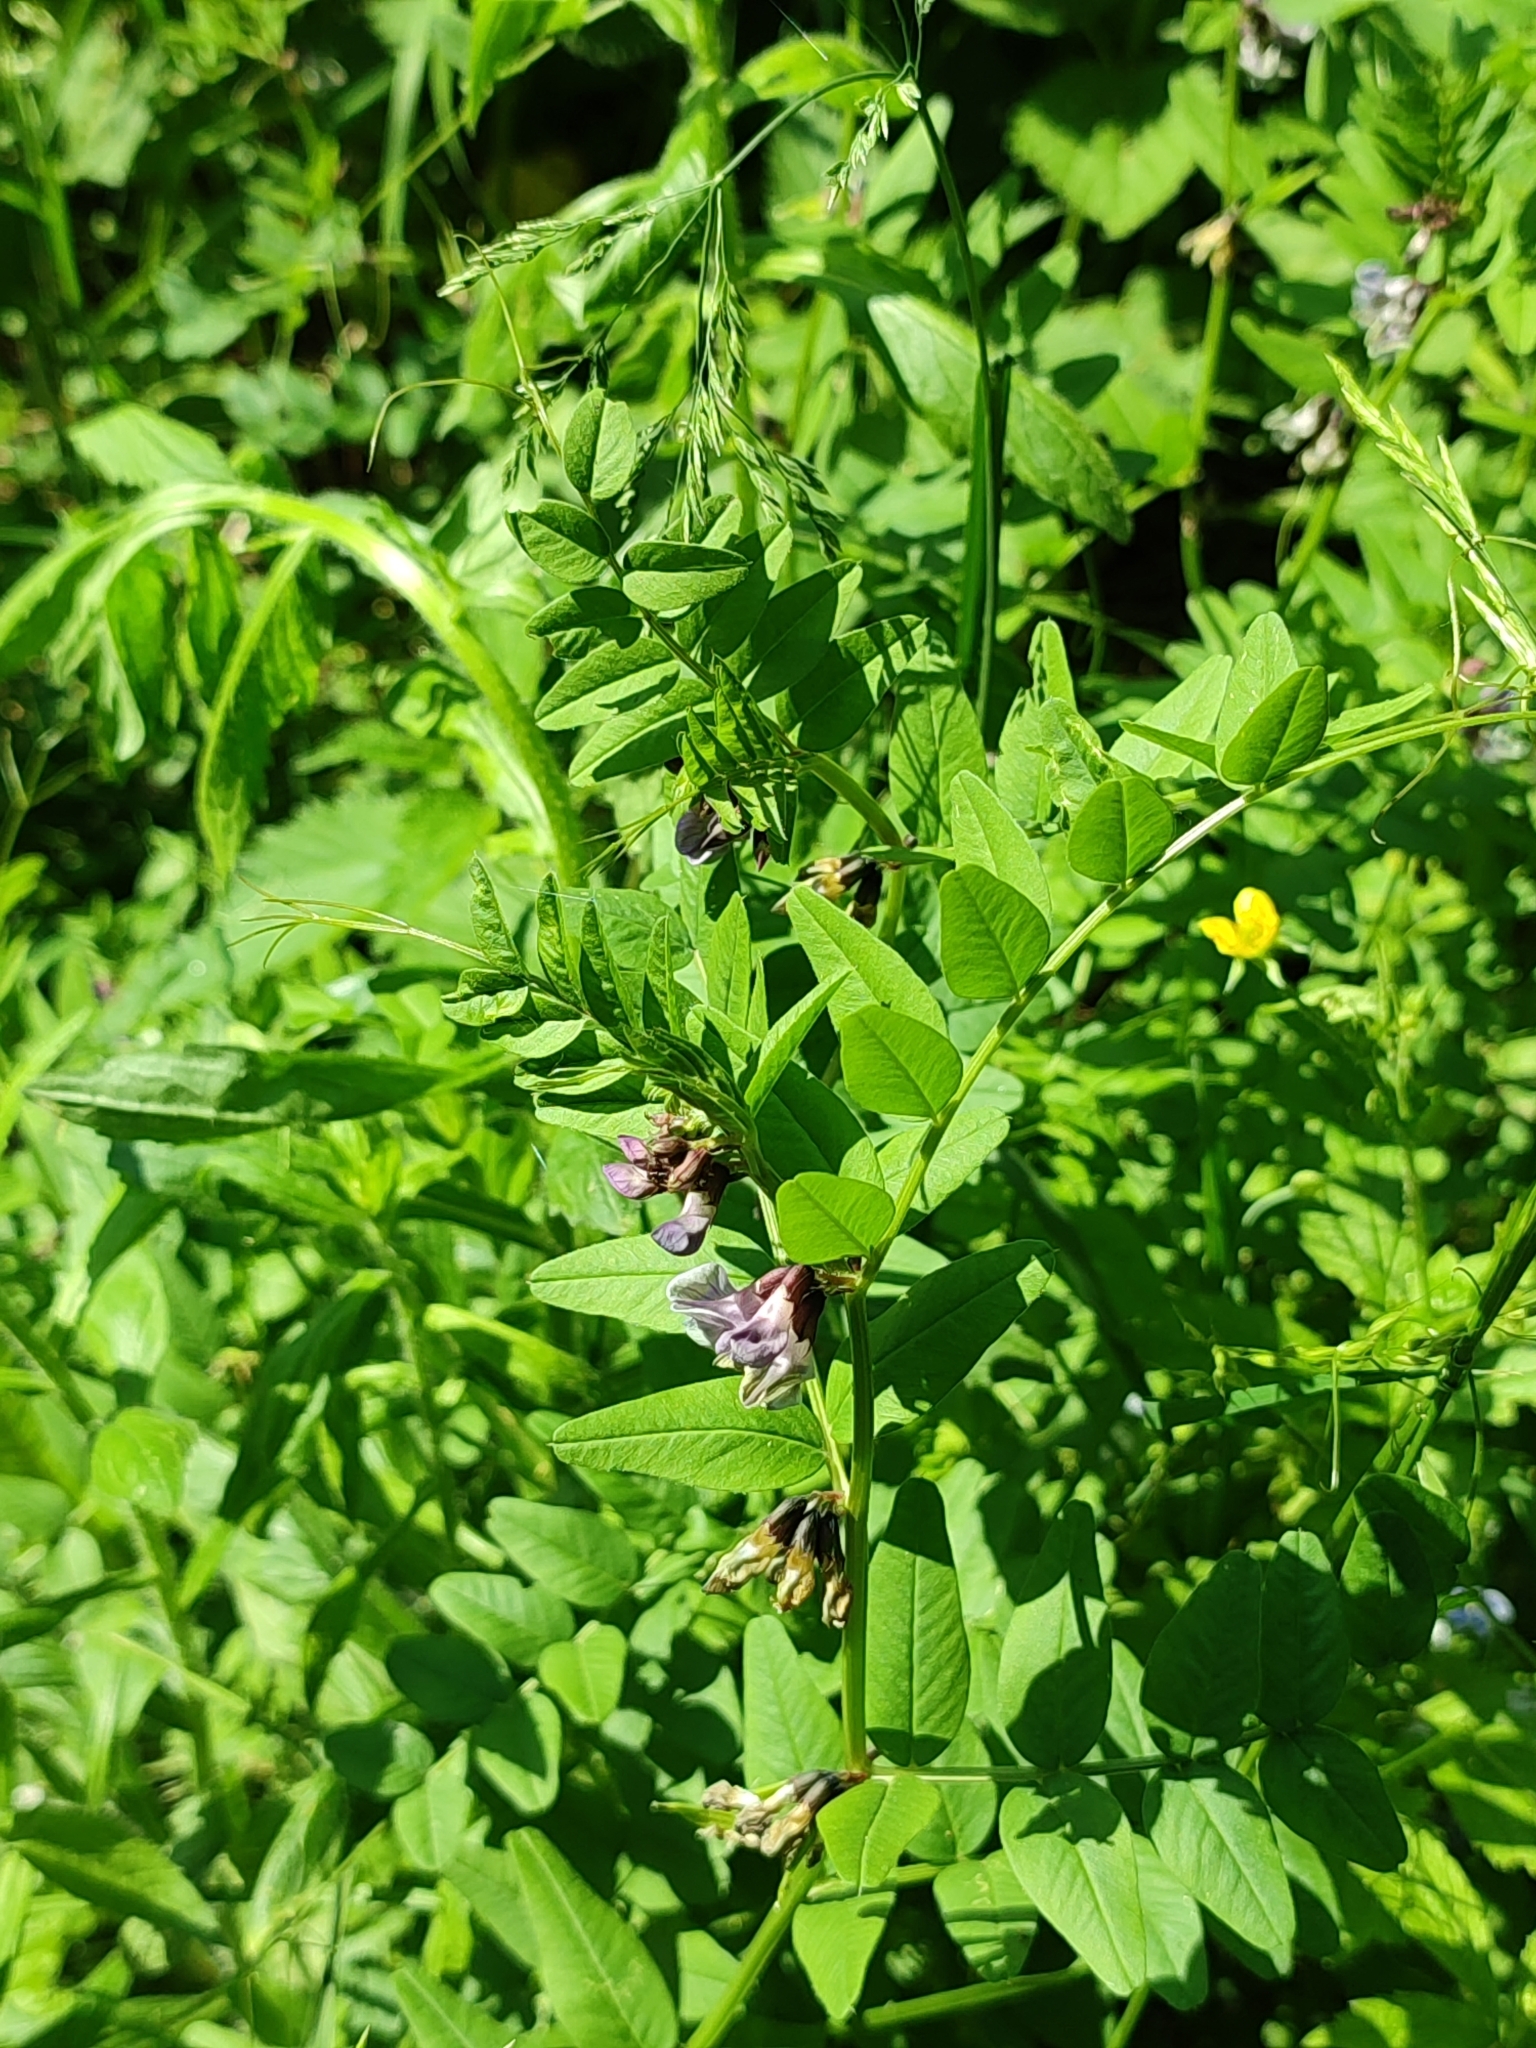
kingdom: Plantae
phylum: Tracheophyta
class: Magnoliopsida
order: Fabales
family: Fabaceae
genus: Vicia
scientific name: Vicia sepium
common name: Bush vetch
